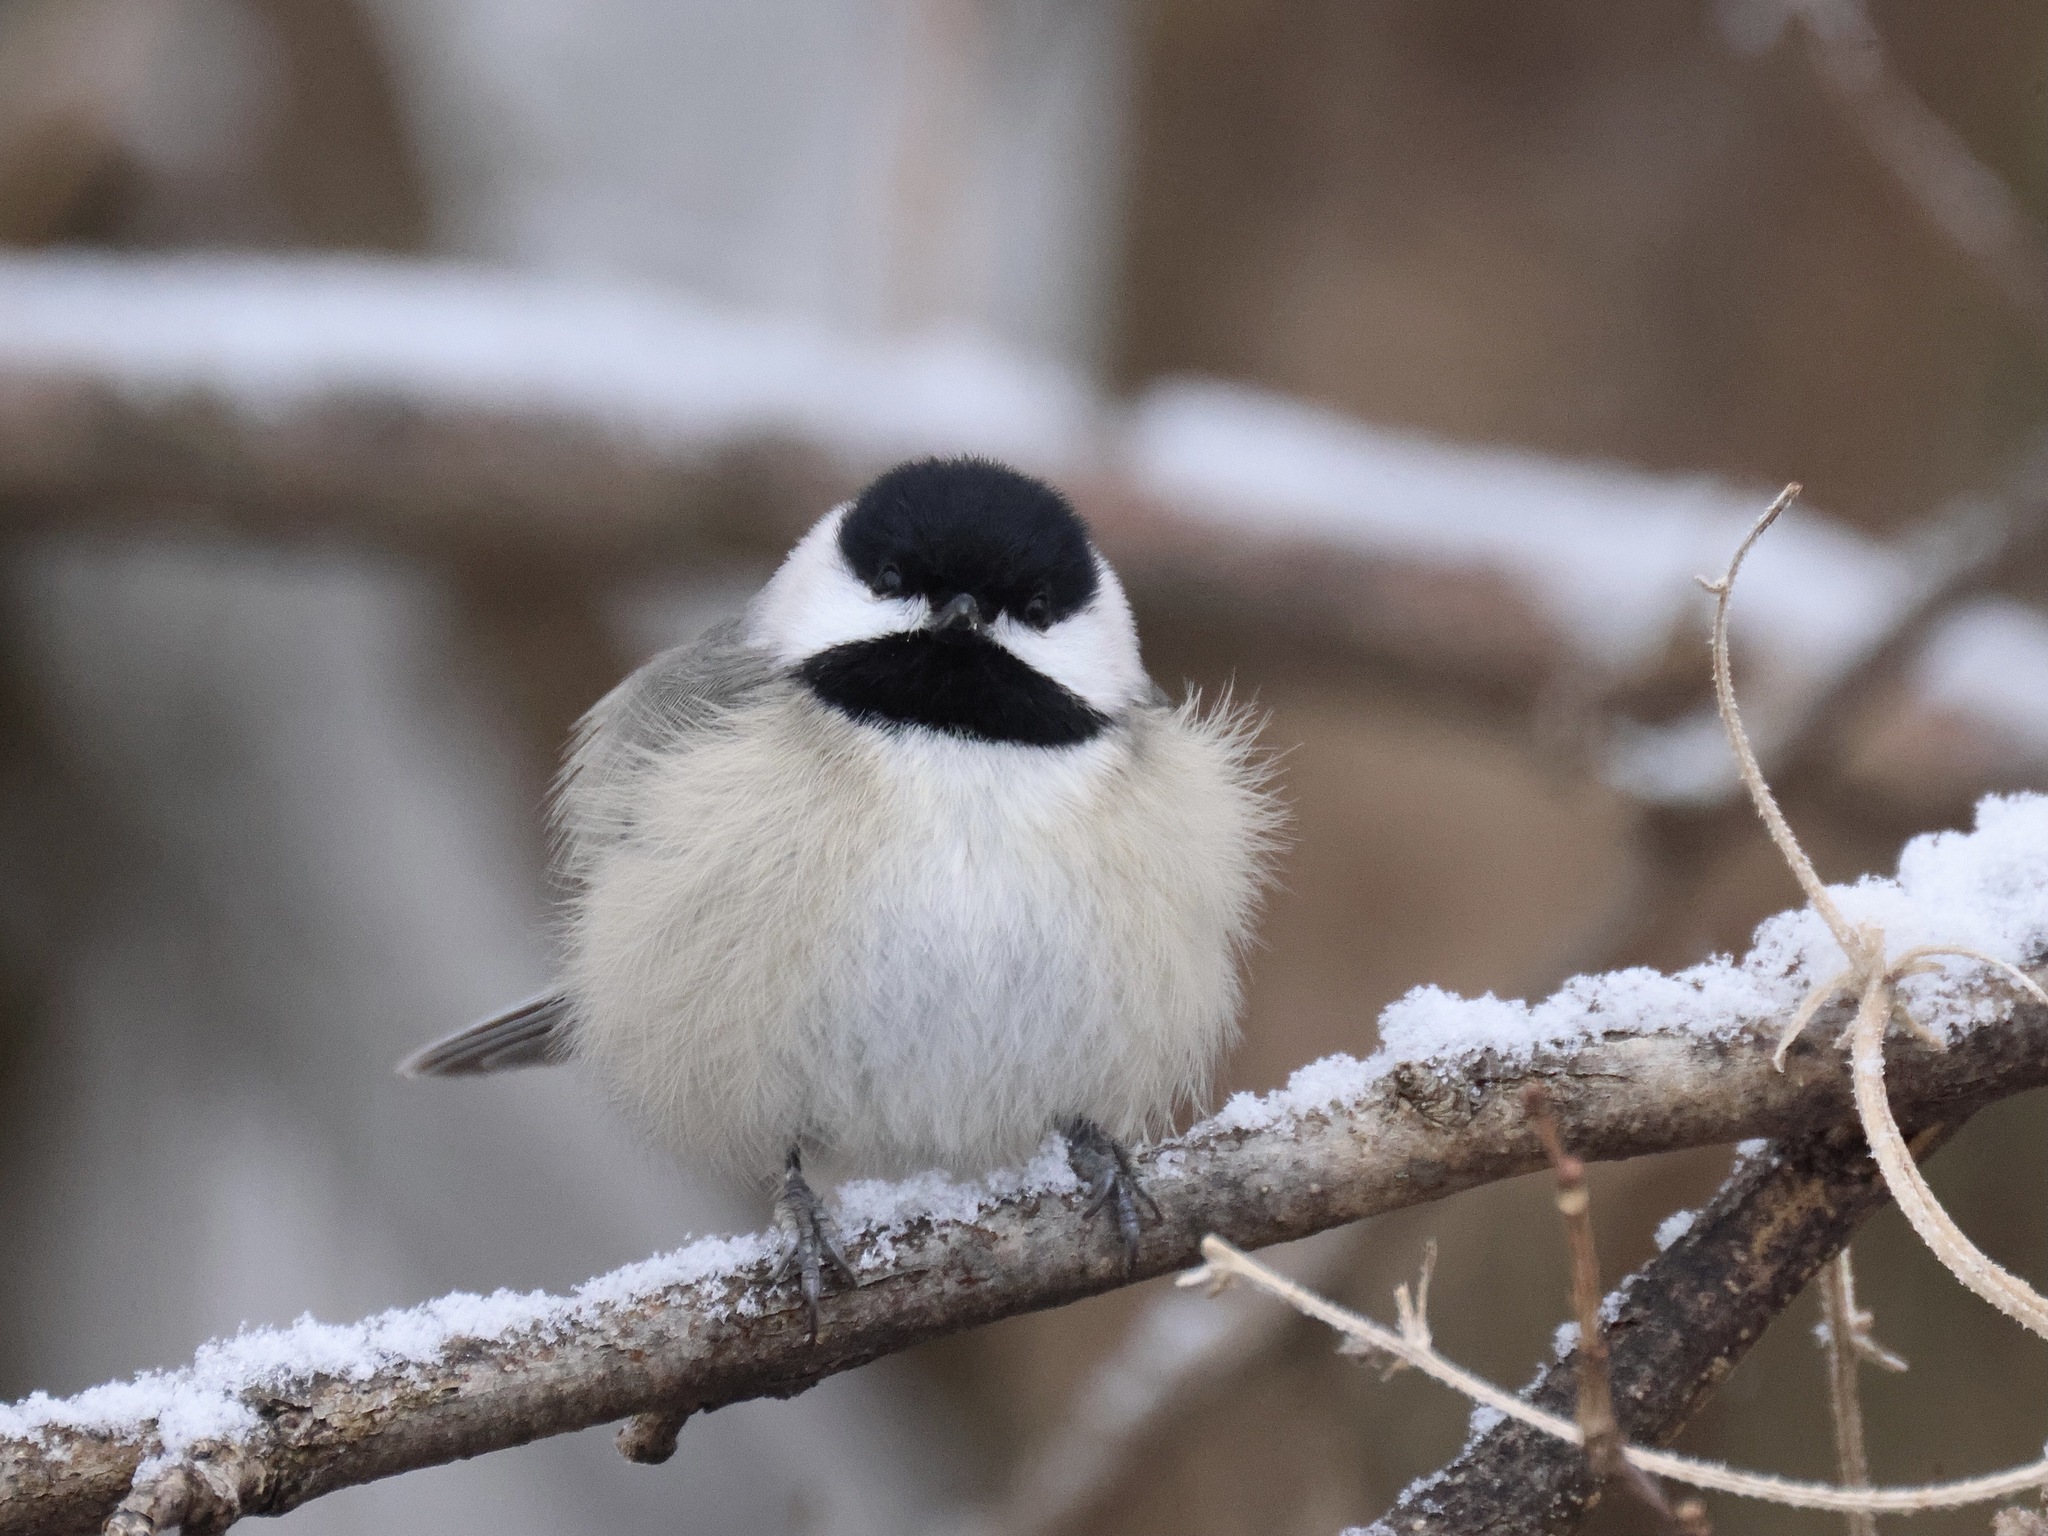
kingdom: Animalia
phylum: Chordata
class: Aves
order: Passeriformes
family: Paridae
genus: Poecile
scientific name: Poecile carolinensis
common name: Carolina chickadee
